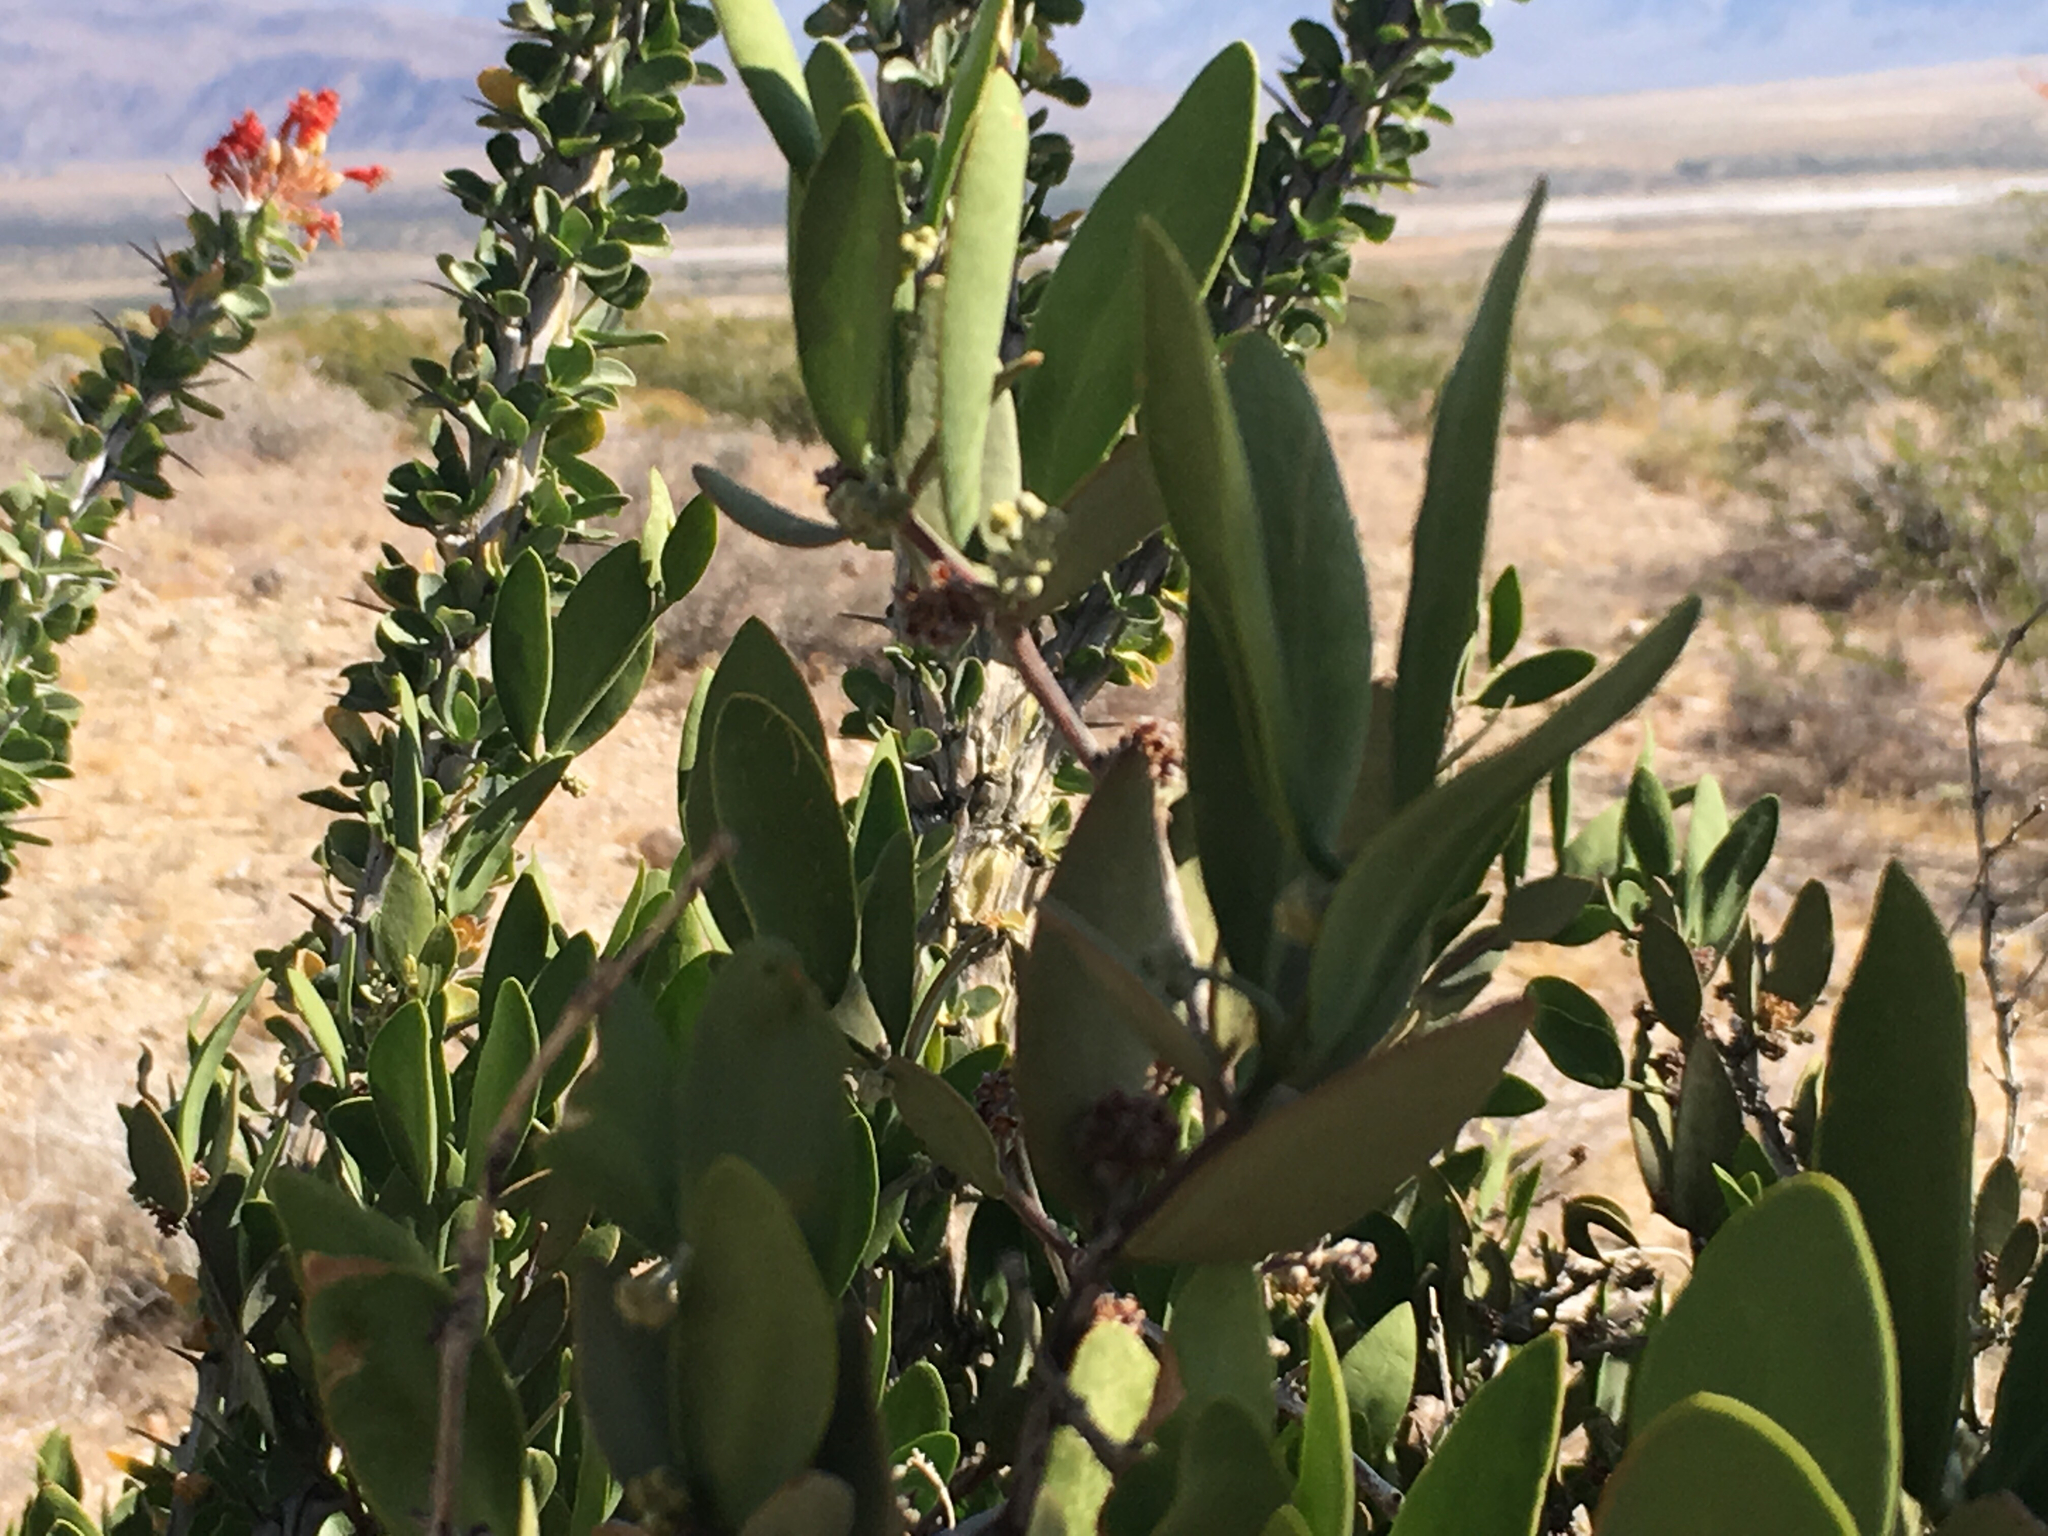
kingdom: Plantae
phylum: Tracheophyta
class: Magnoliopsida
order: Ericales
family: Fouquieriaceae
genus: Fouquieria
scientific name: Fouquieria splendens
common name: Vine-cactus
